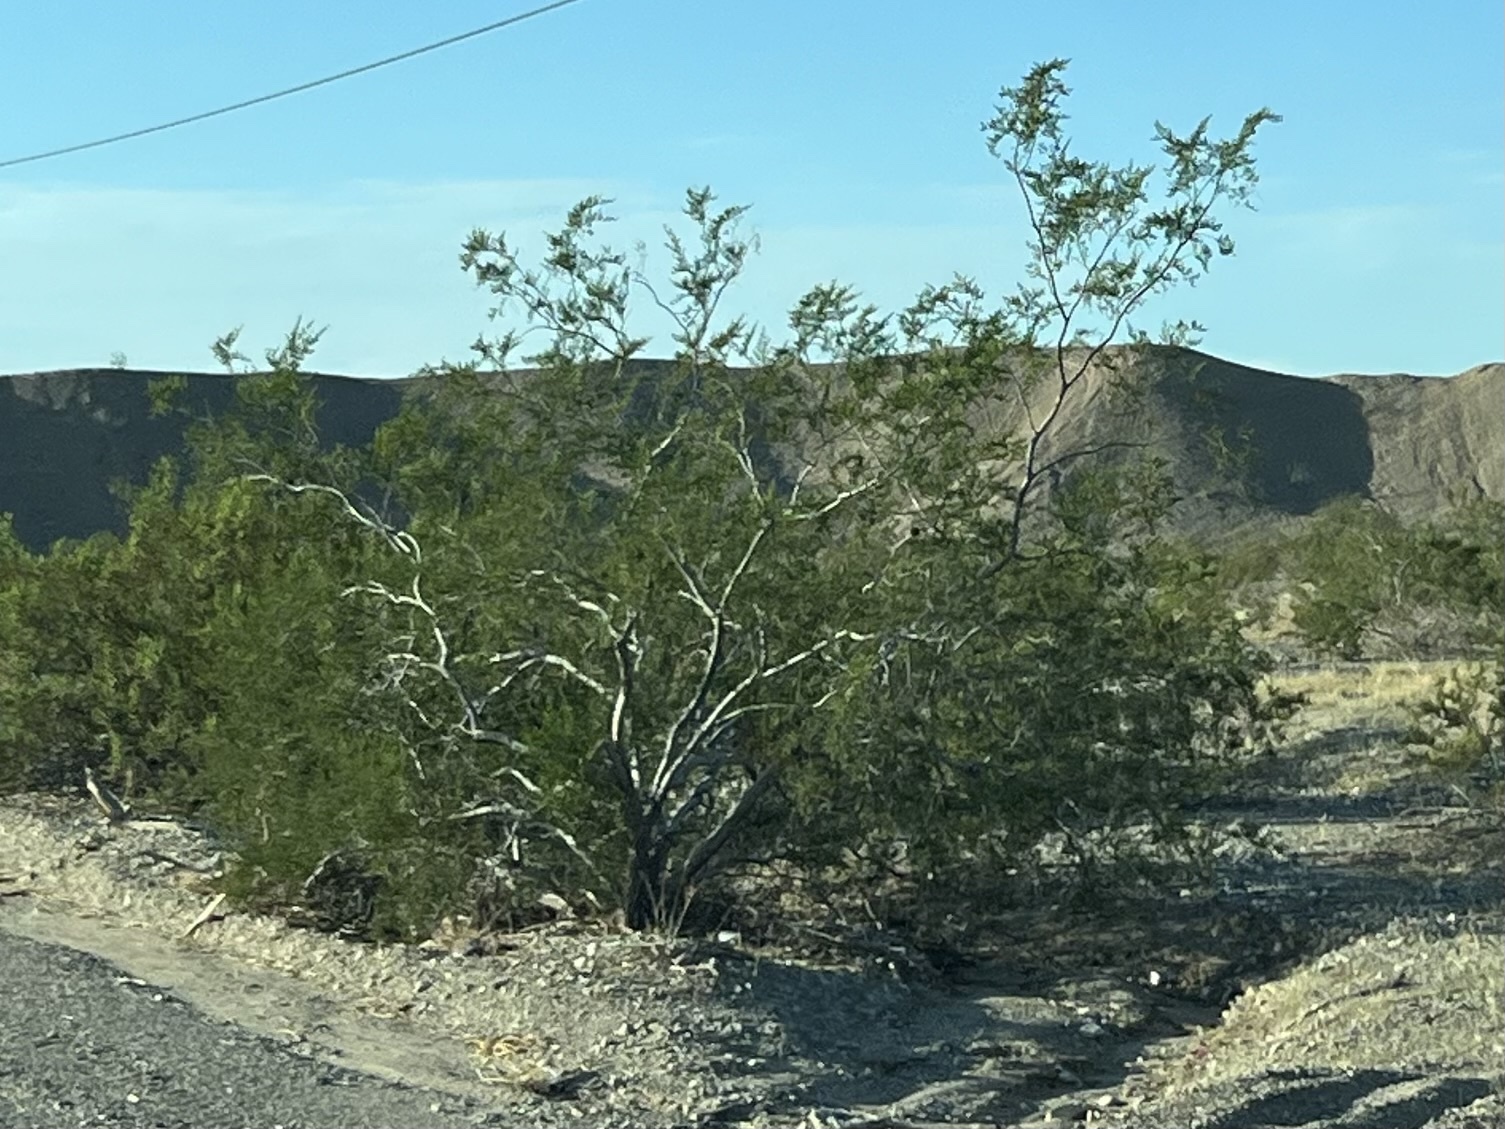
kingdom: Plantae
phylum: Tracheophyta
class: Magnoliopsida
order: Zygophyllales
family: Zygophyllaceae
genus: Larrea
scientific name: Larrea tridentata
